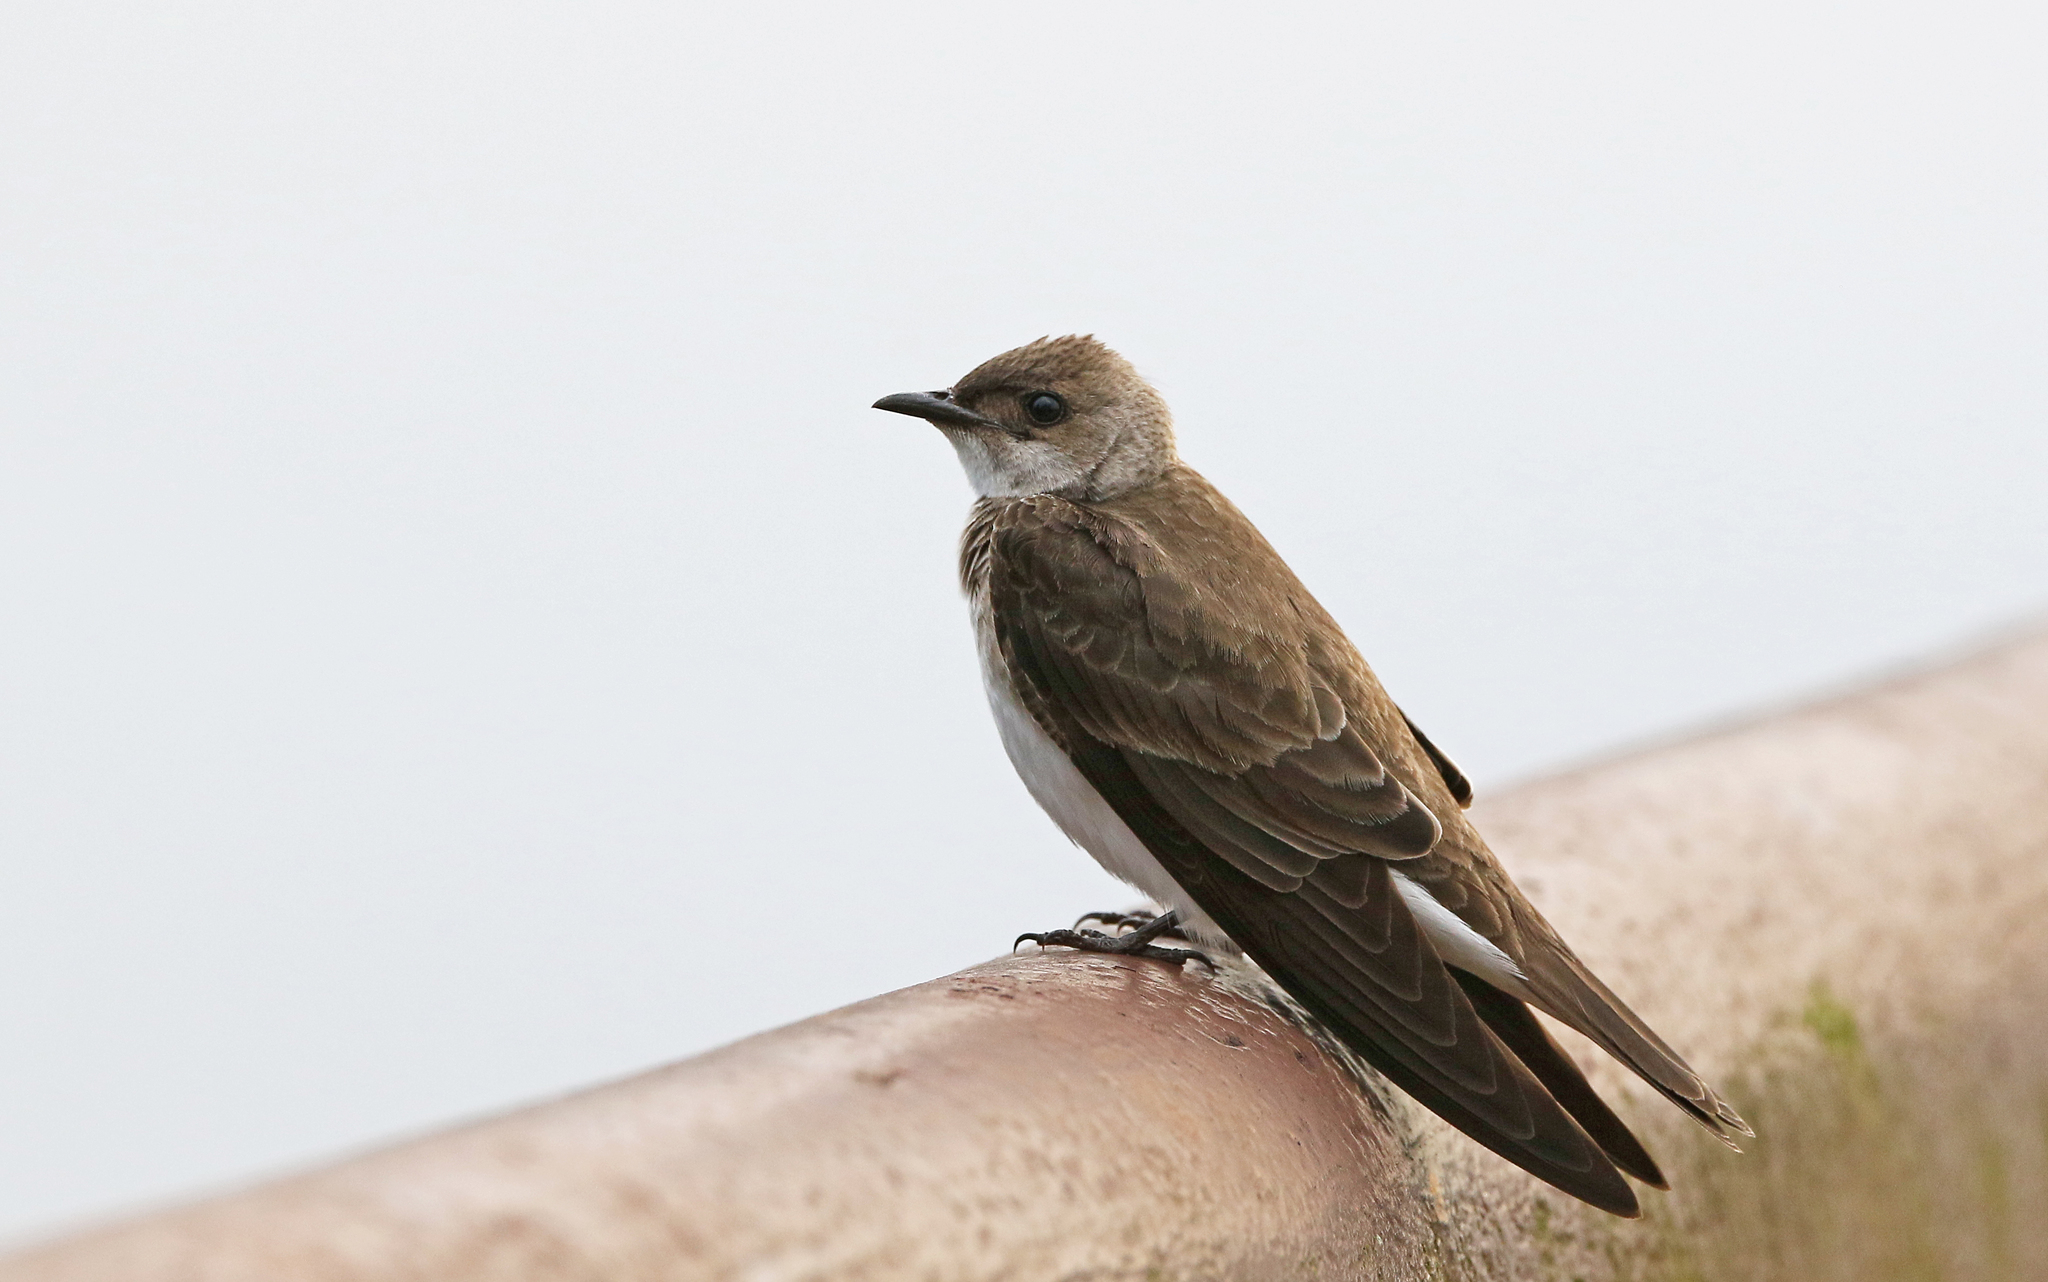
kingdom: Animalia
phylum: Chordata
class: Aves
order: Passeriformes
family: Hirundinidae
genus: Progne
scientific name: Progne tapera
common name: Brown-chested martin
